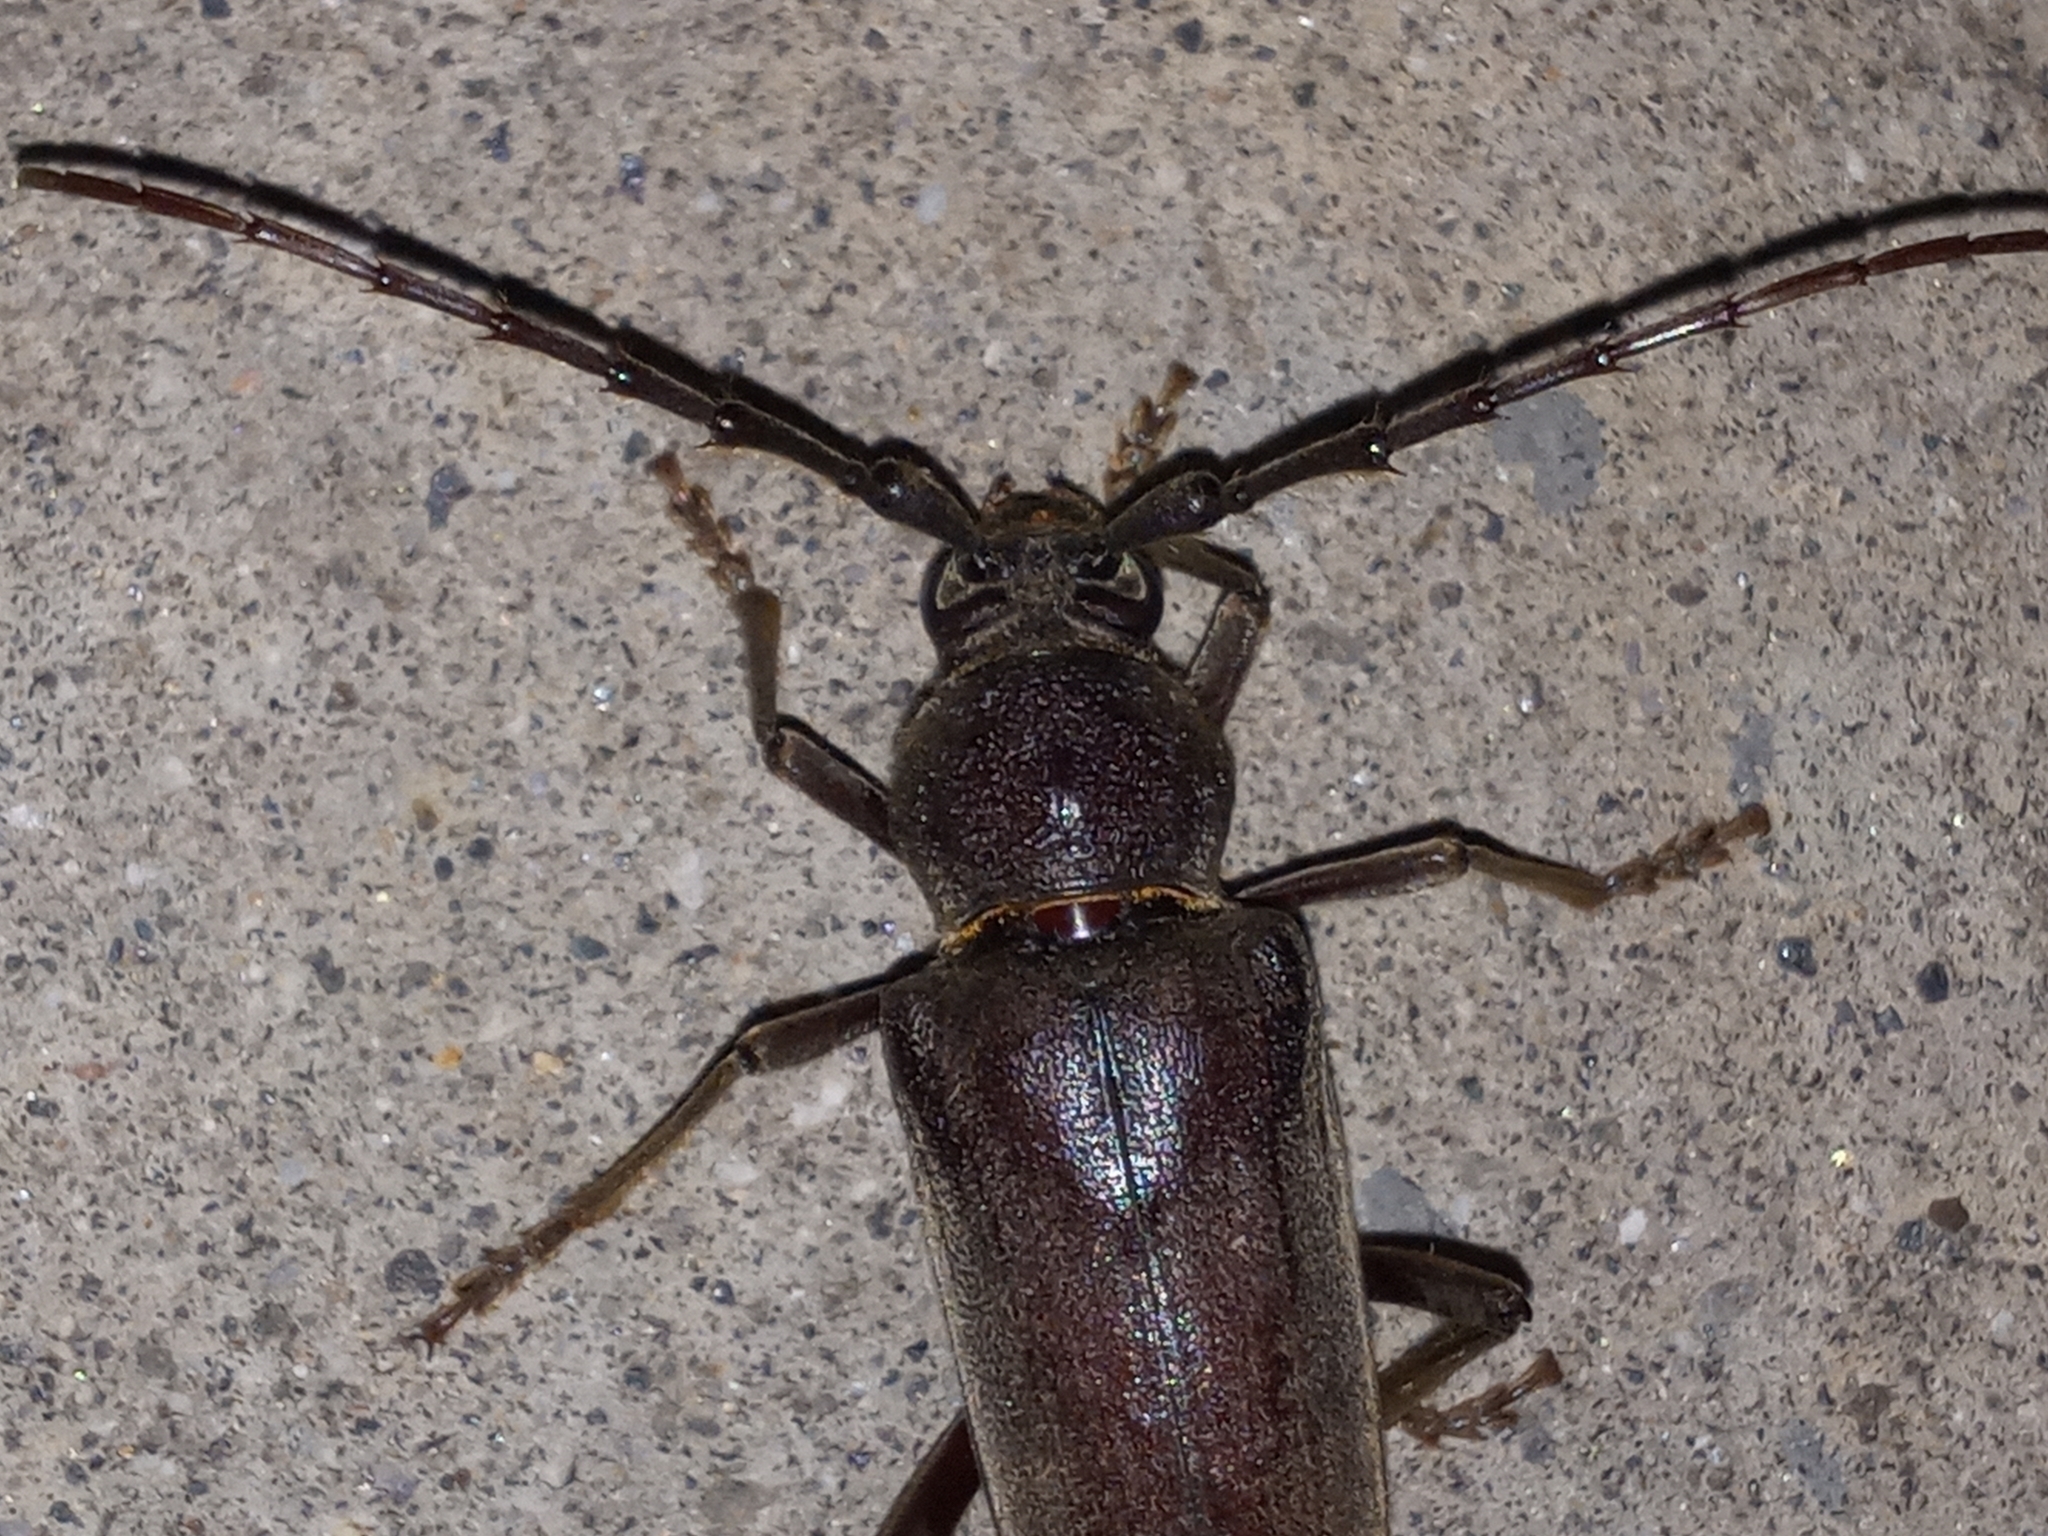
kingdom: Animalia
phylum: Arthropoda
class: Insecta
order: Coleoptera
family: Cerambycidae
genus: Enaphalodes
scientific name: Enaphalodes hispicornis
